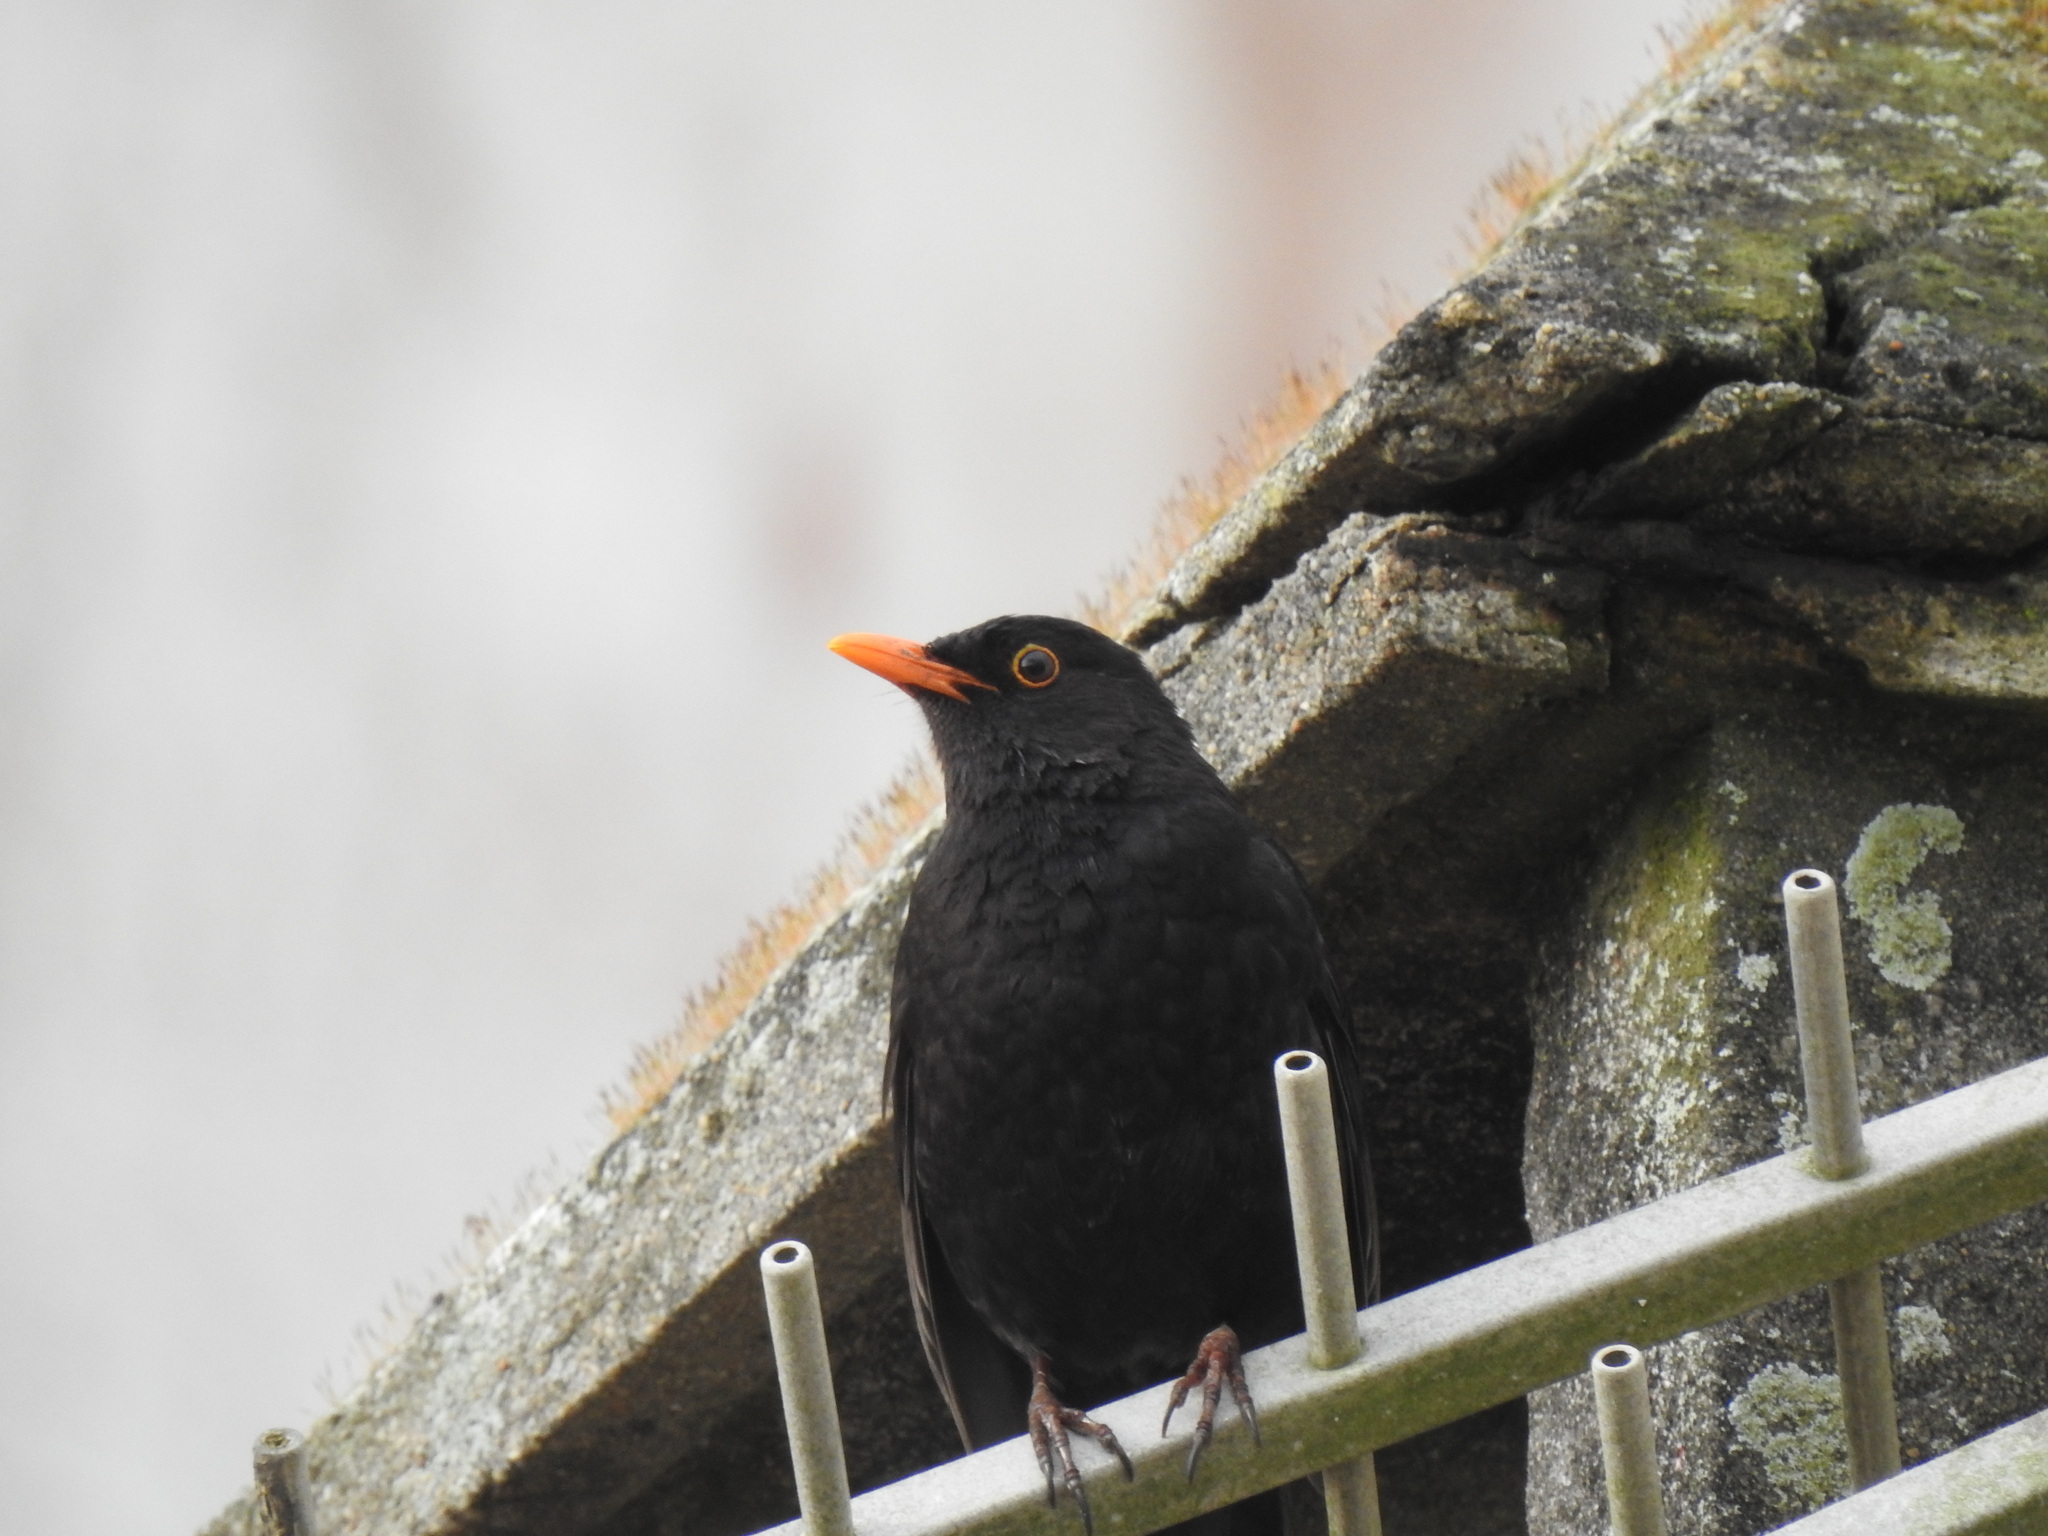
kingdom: Animalia
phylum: Chordata
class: Aves
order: Passeriformes
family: Turdidae
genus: Turdus
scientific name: Turdus merula
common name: Common blackbird
